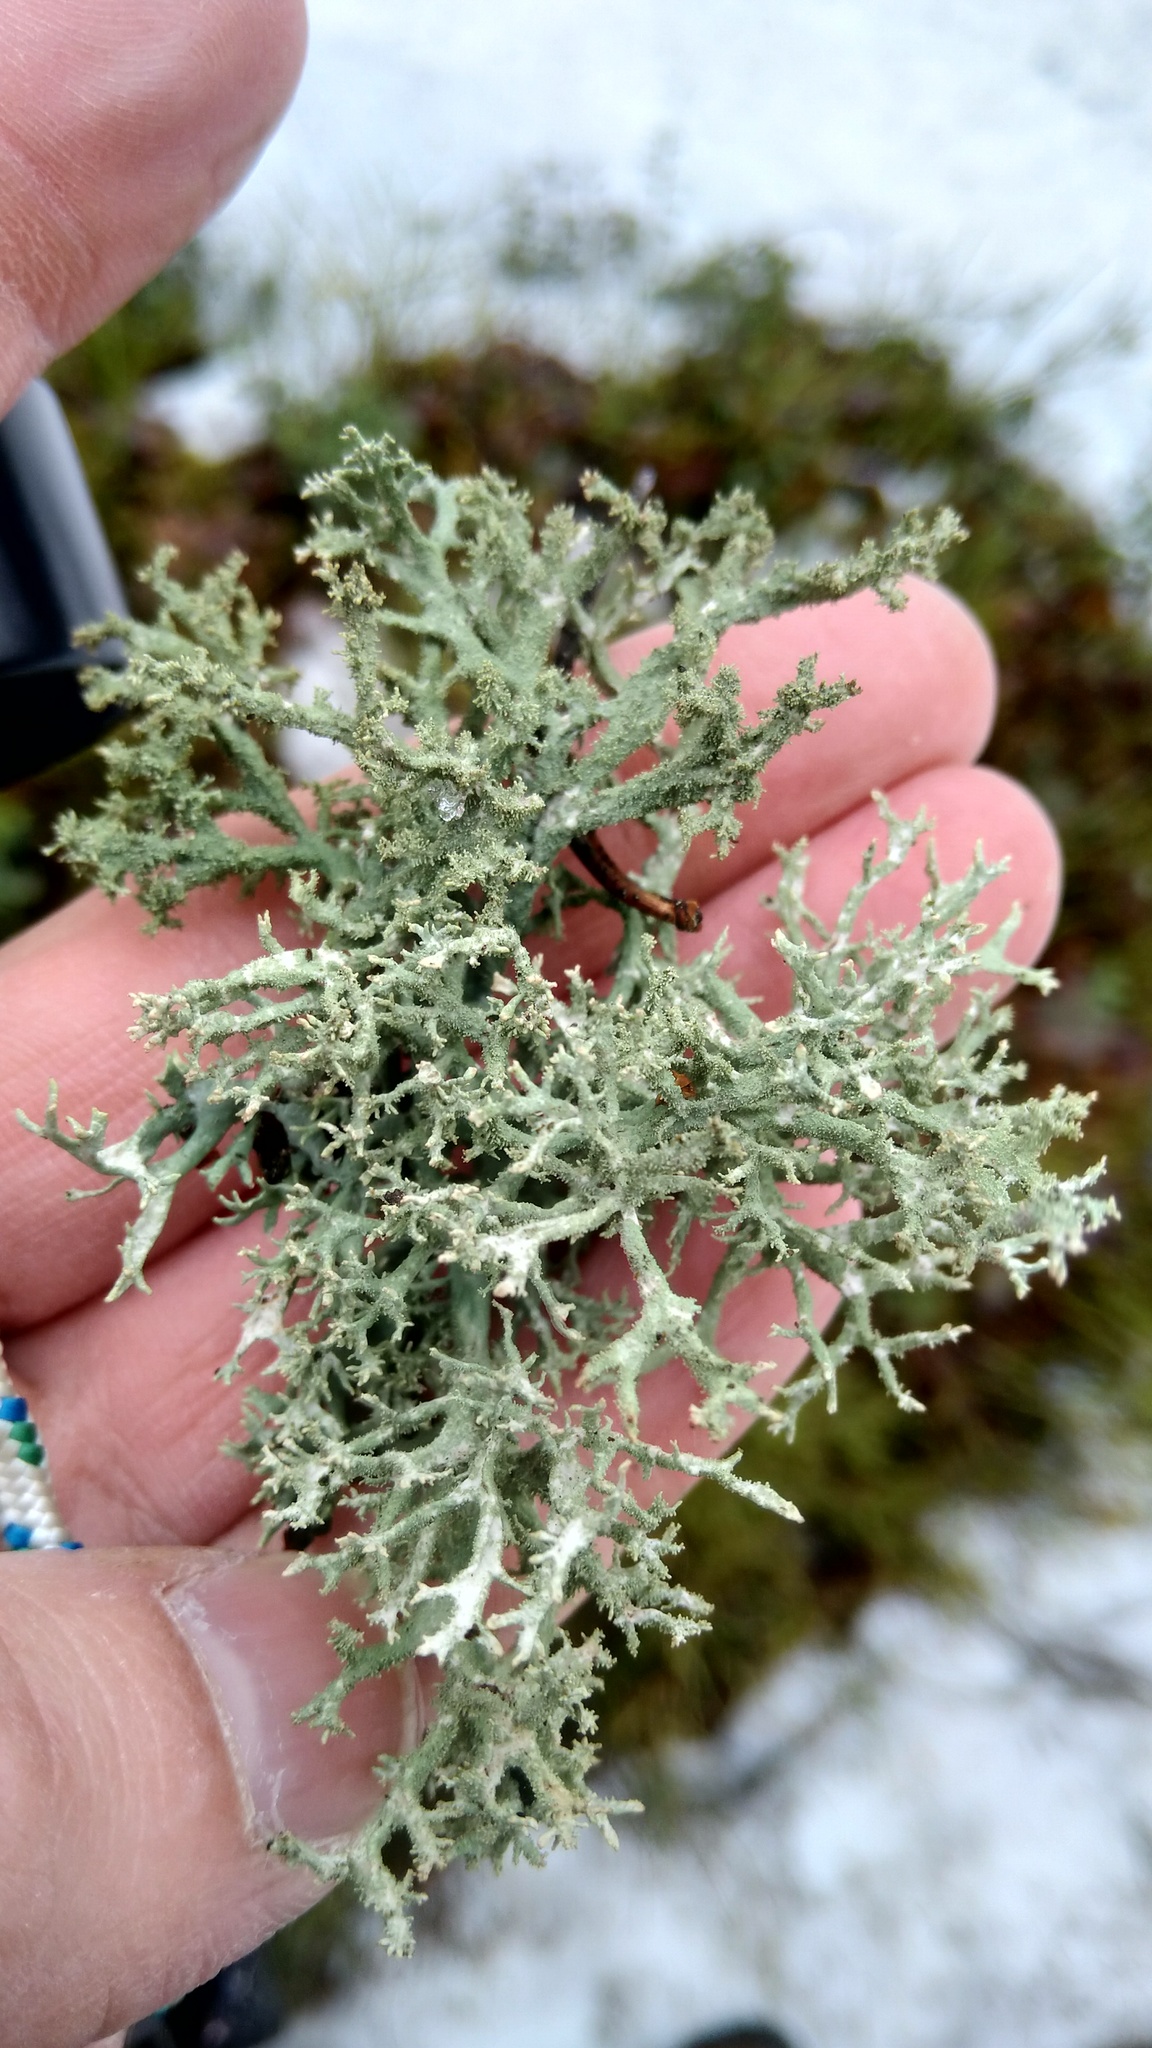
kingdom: Fungi
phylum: Ascomycota
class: Lecanoromycetes
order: Lecanorales
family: Parmeliaceae
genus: Pseudevernia
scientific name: Pseudevernia furfuracea
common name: Tree moss
